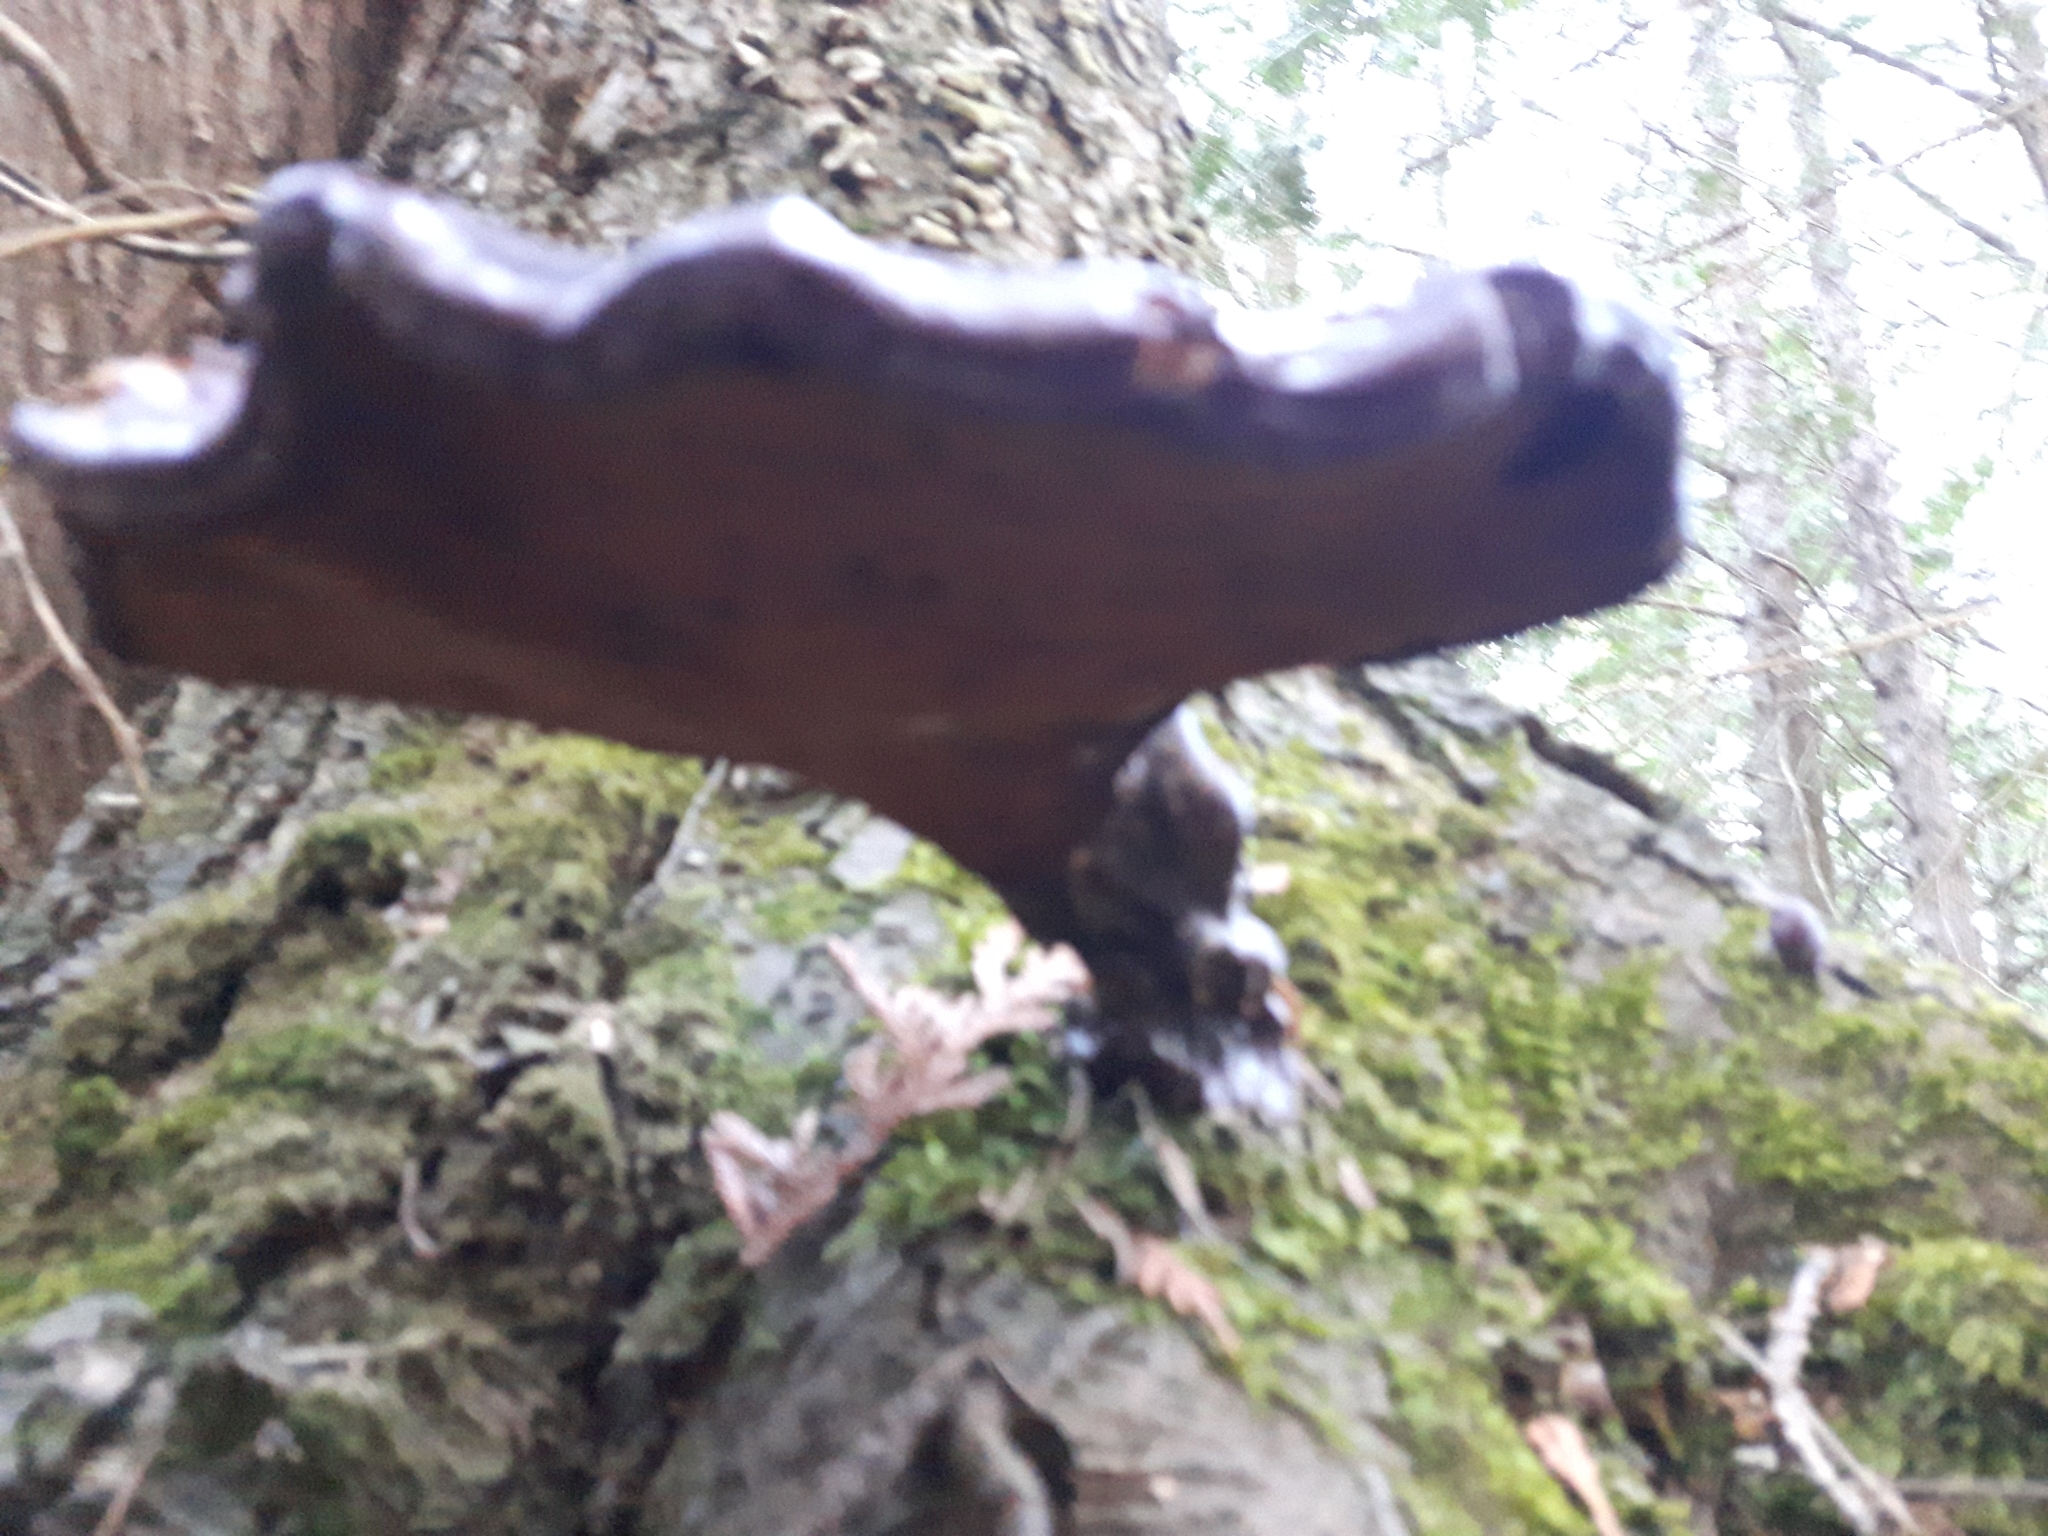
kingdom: Fungi
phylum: Basidiomycota
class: Agaricomycetes
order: Polyporales
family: Polyporaceae
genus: Ganoderma
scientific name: Ganoderma tsugae
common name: Hemlock varnish shelf
